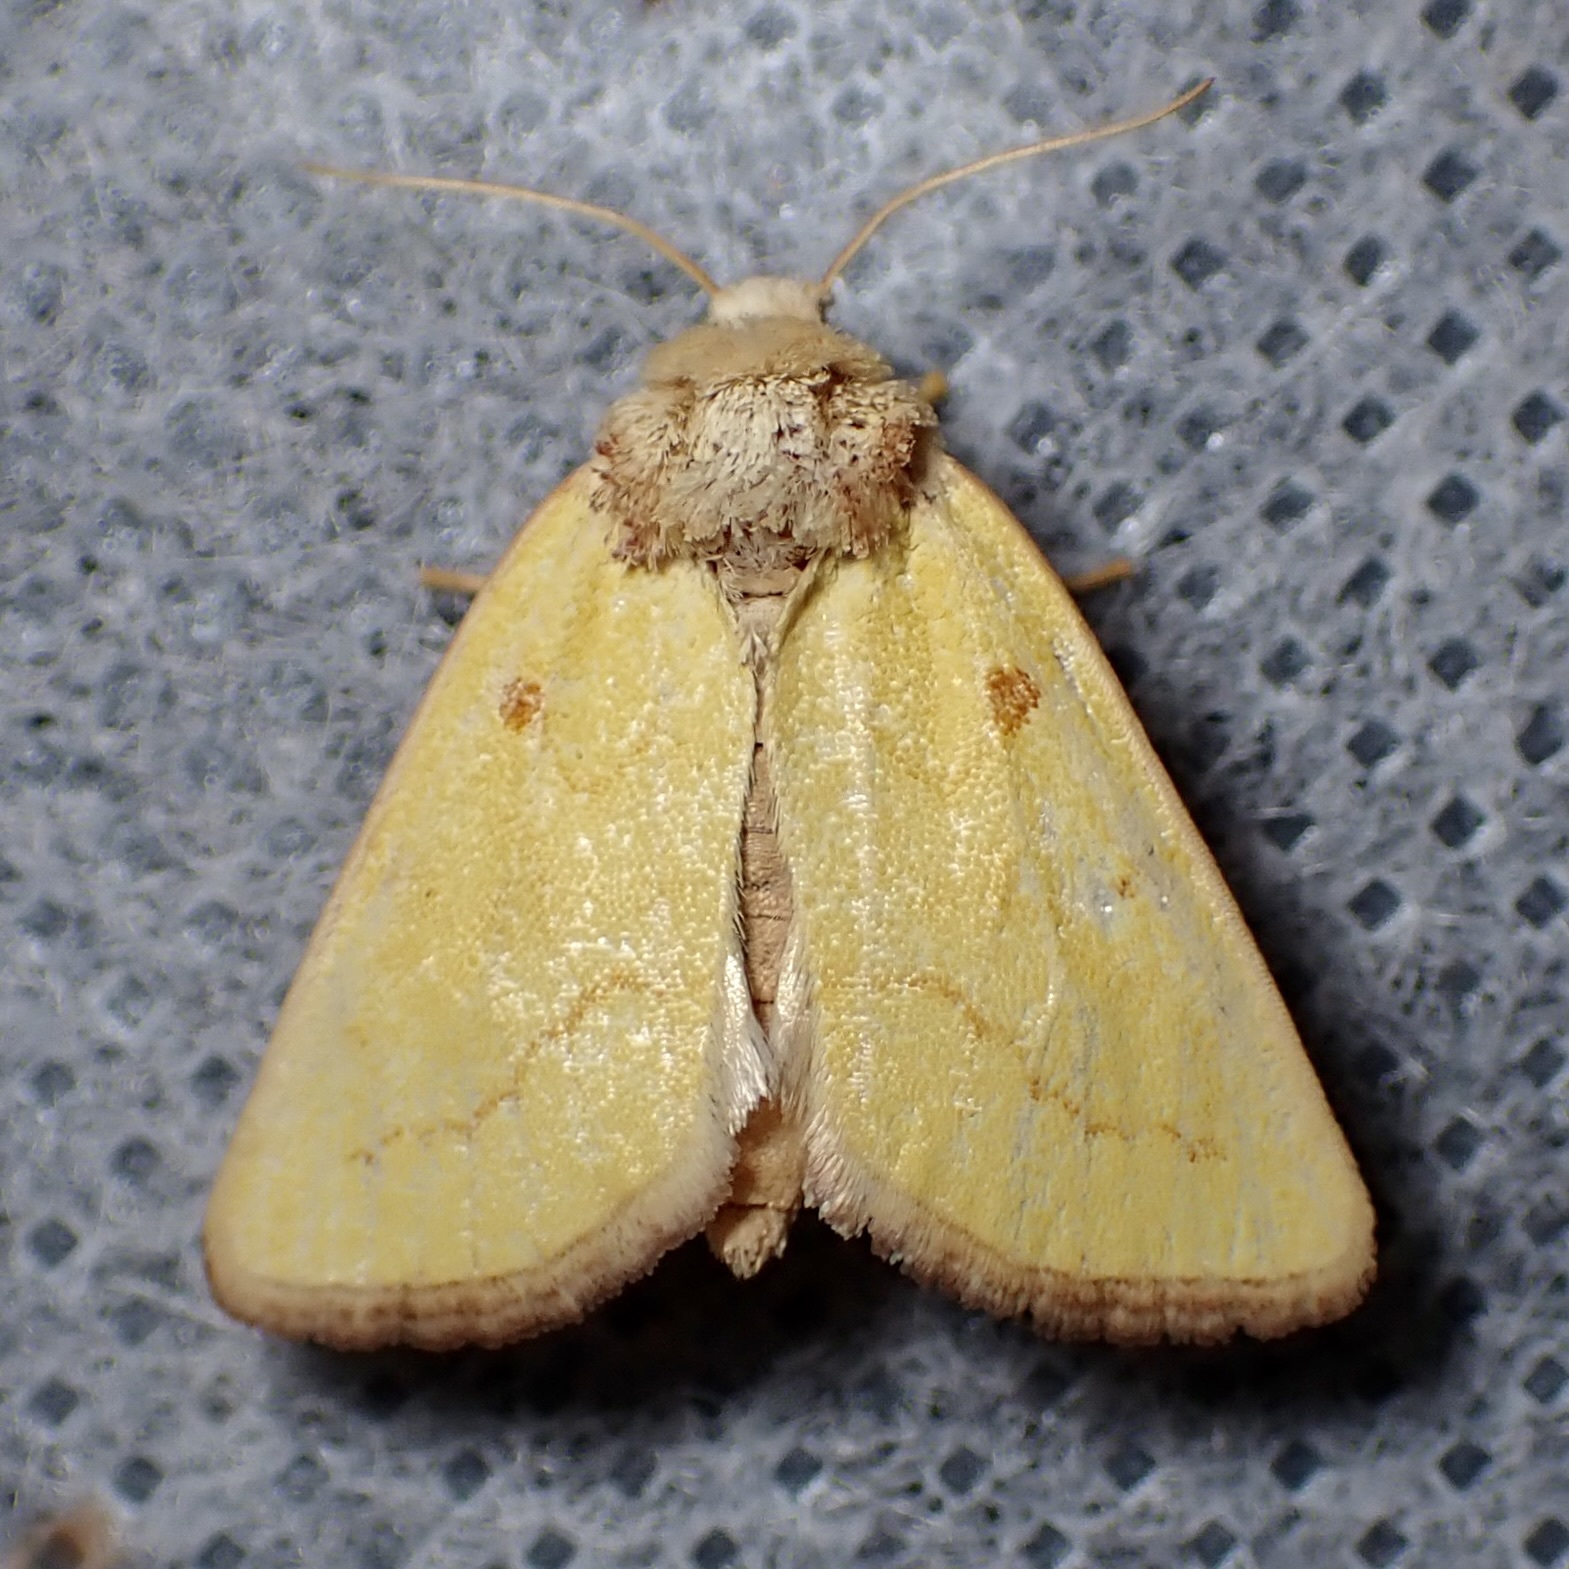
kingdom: Animalia
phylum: Arthropoda
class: Insecta
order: Lepidoptera
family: Noctuidae
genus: Nocloa
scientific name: Nocloa aliaga
